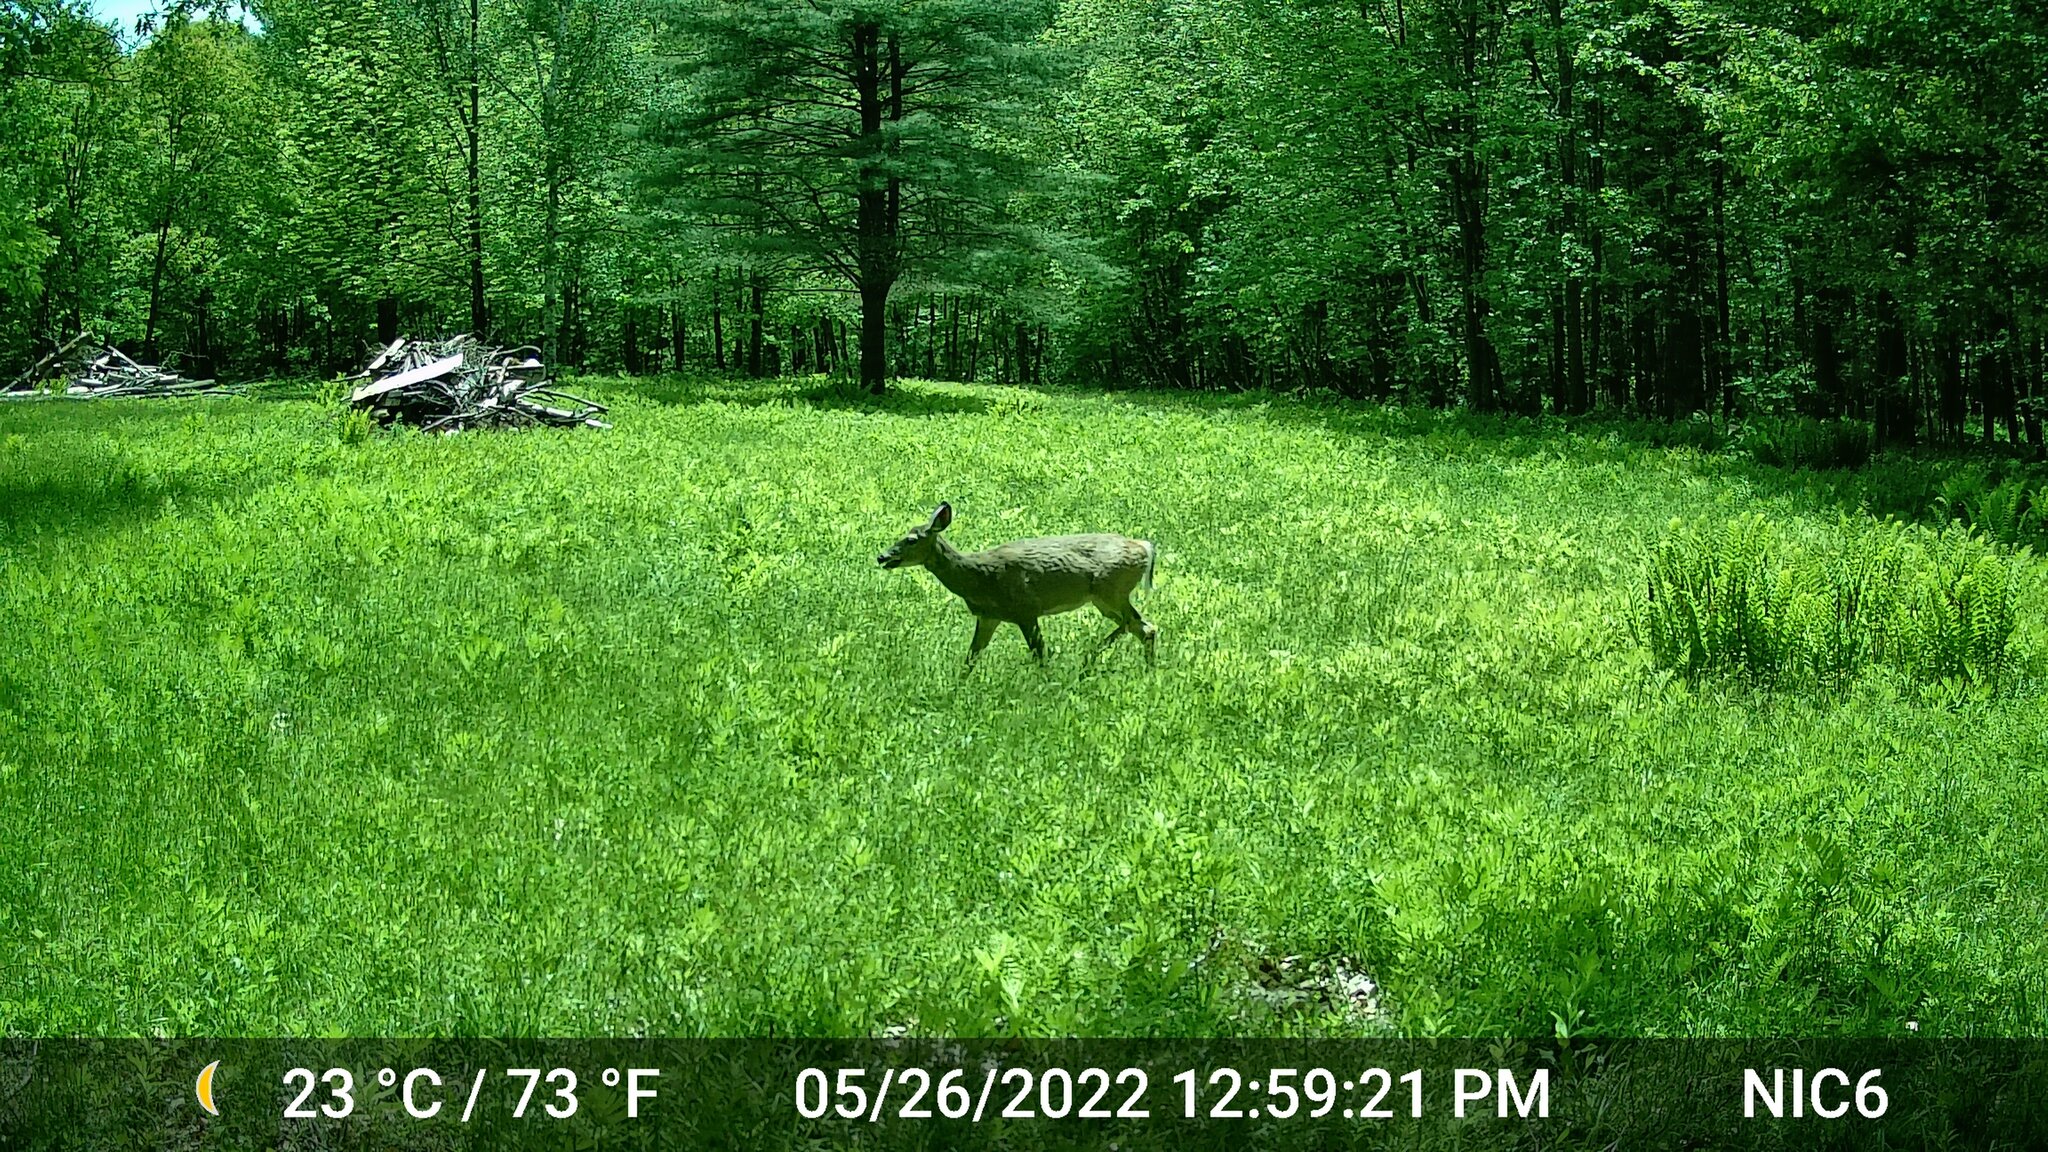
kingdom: Animalia
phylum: Chordata
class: Mammalia
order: Artiodactyla
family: Cervidae
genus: Odocoileus
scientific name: Odocoileus virginianus
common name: White-tailed deer
